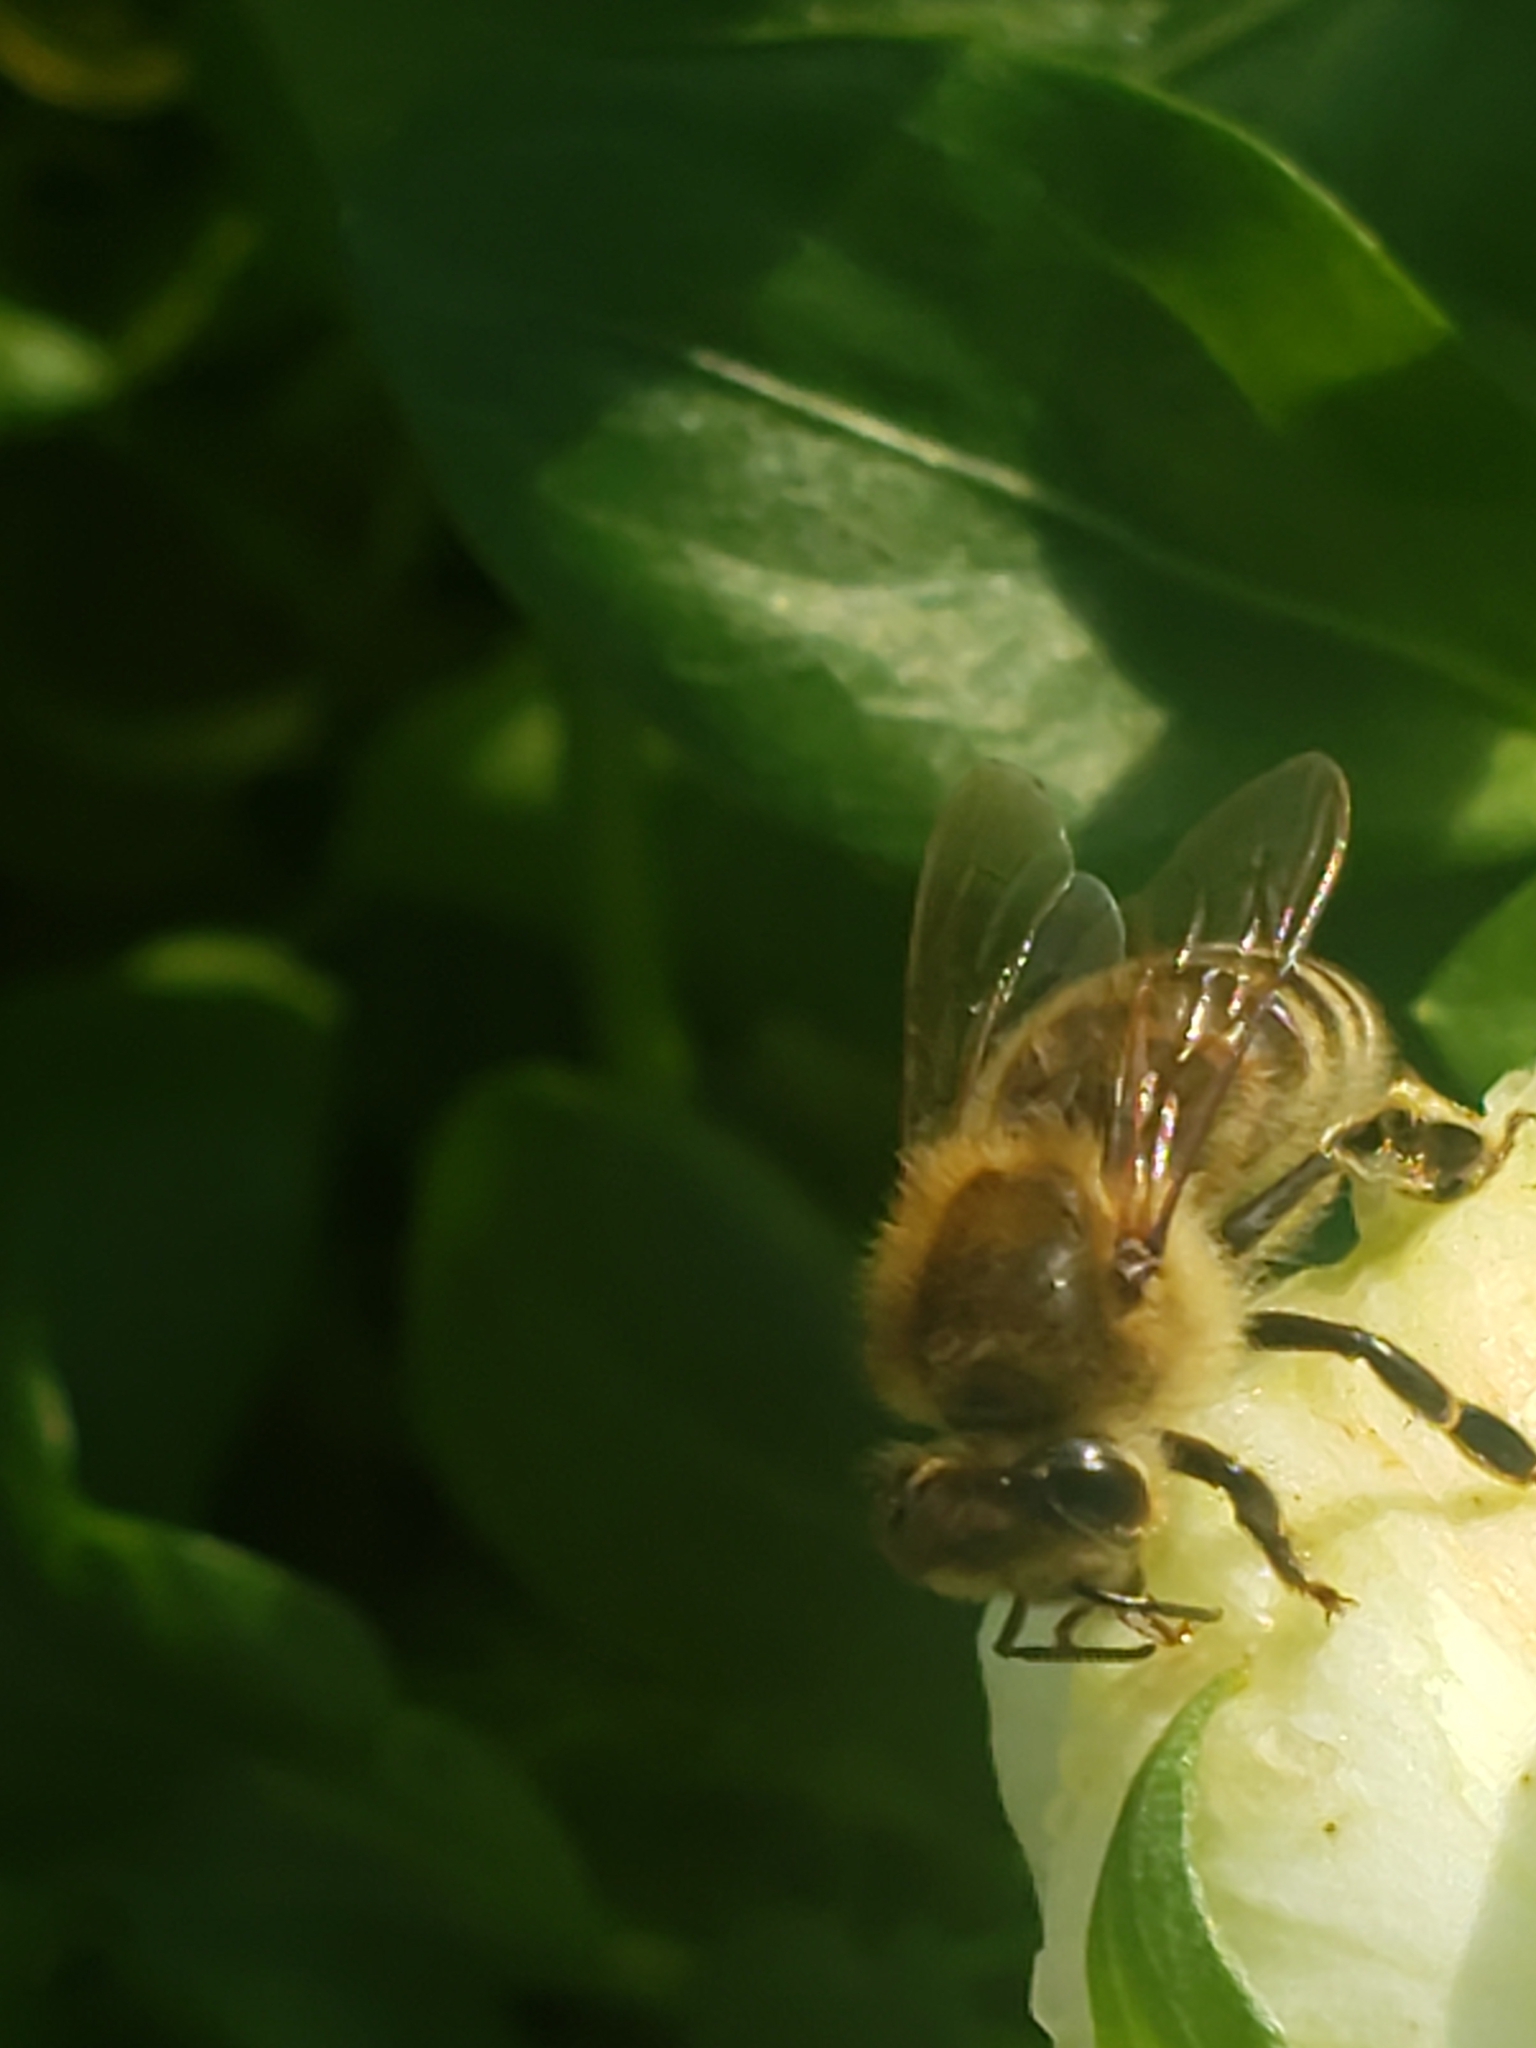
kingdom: Animalia
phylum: Arthropoda
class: Insecta
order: Hymenoptera
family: Apidae
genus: Apis
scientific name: Apis mellifera
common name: Honey bee
